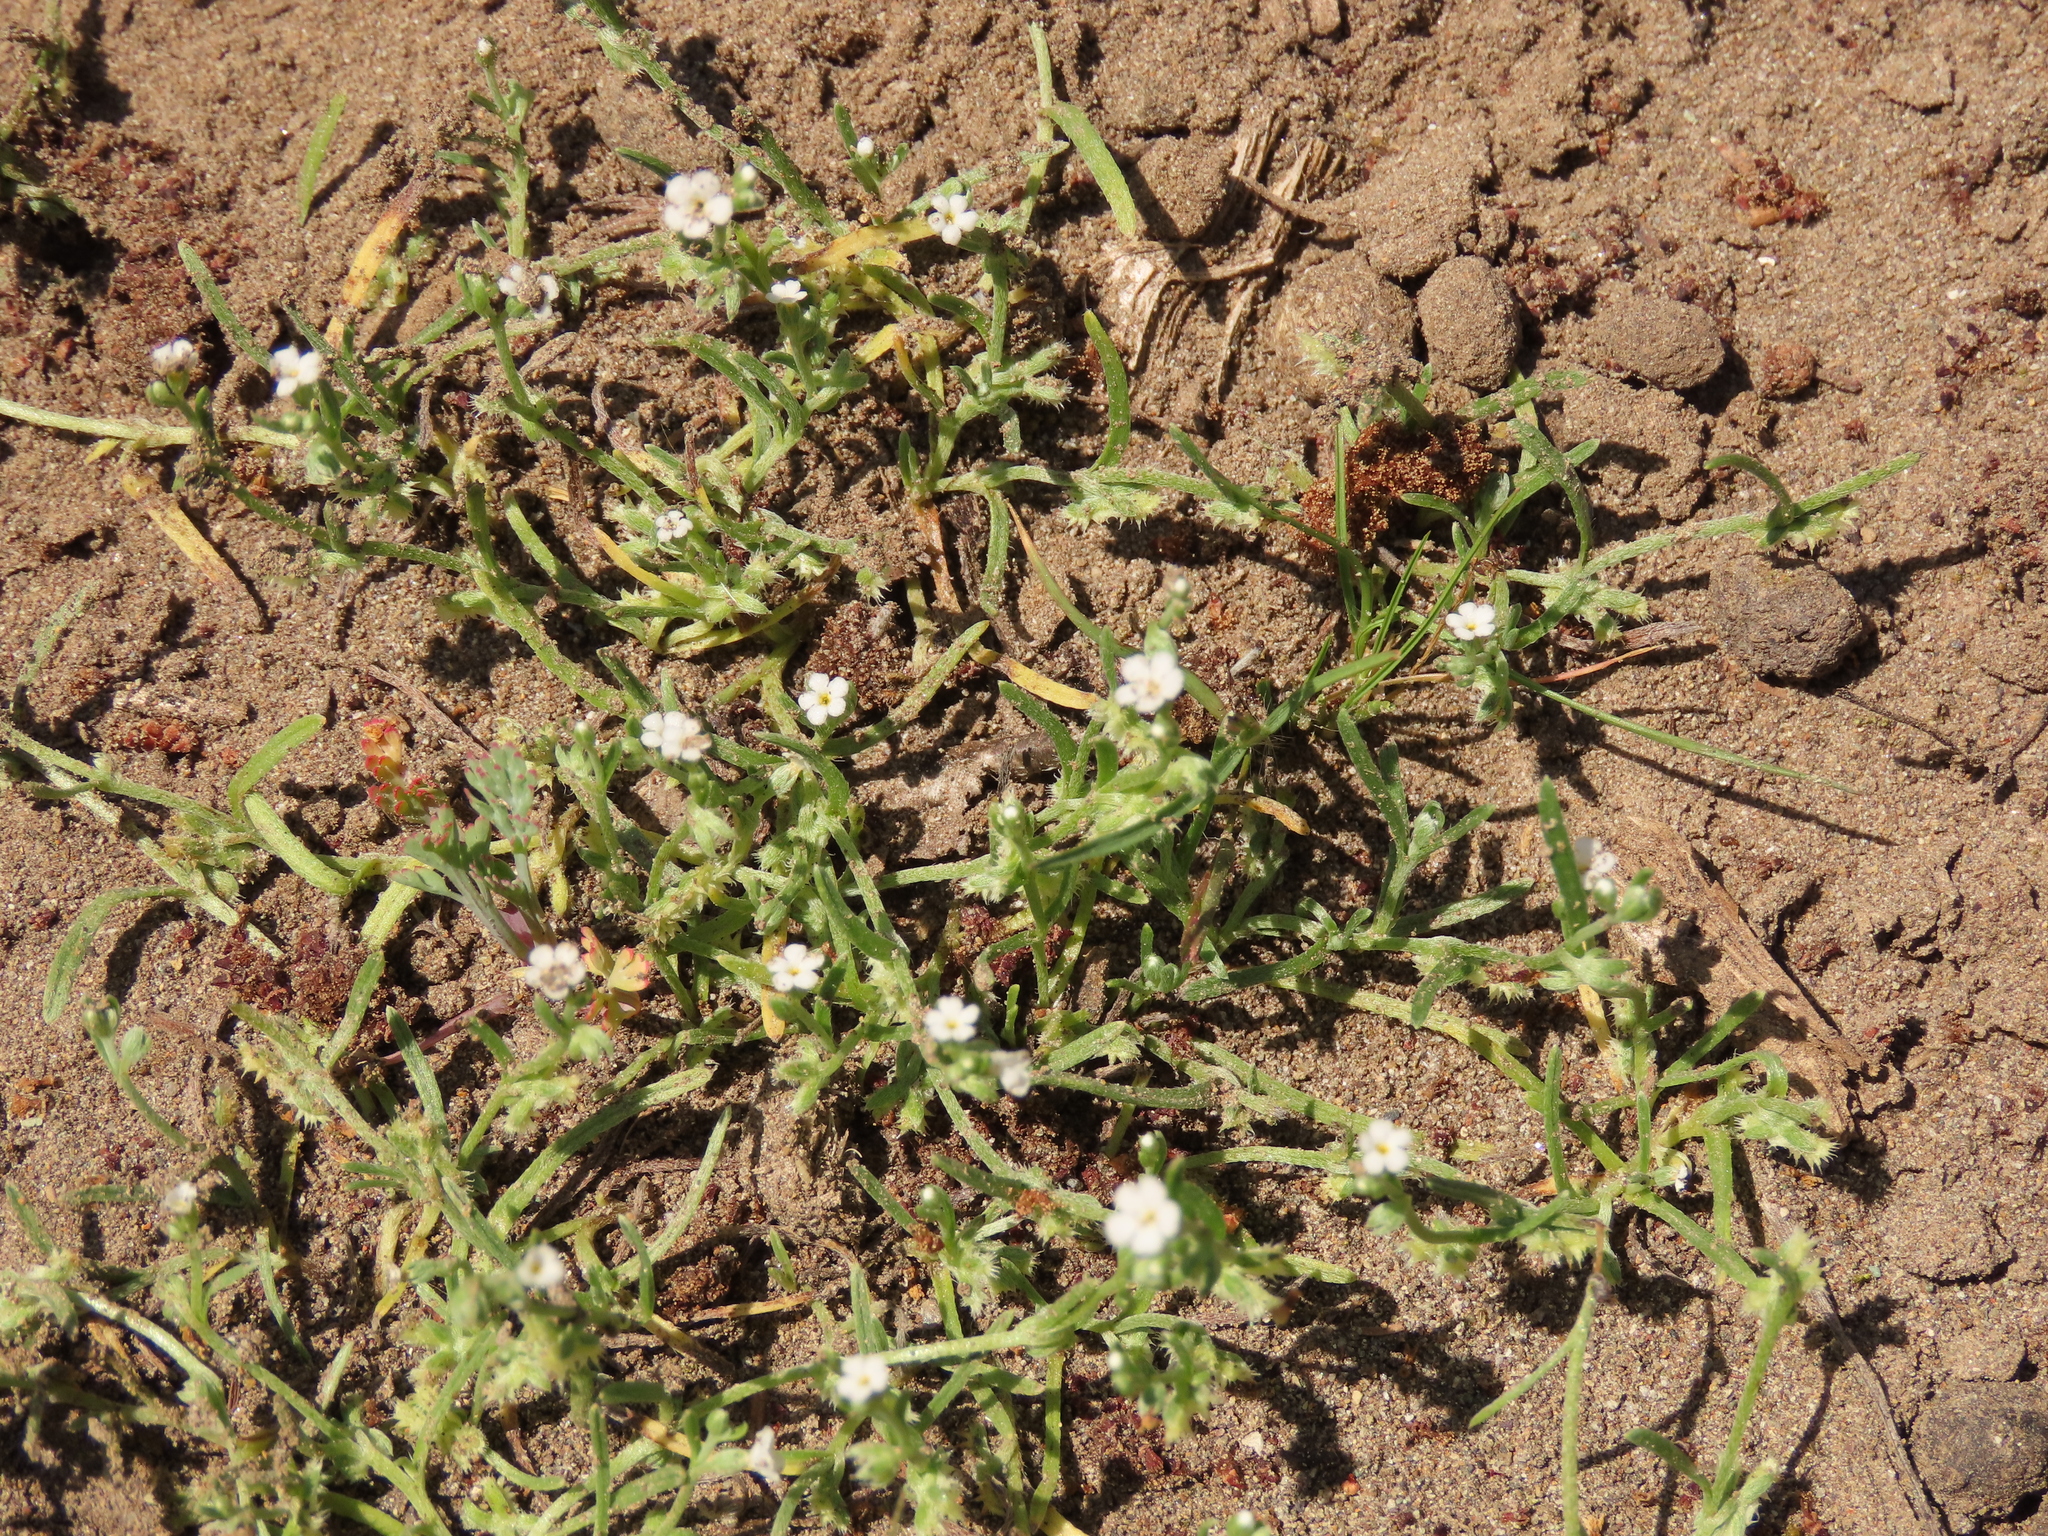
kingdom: Plantae
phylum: Tracheophyta
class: Magnoliopsida
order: Boraginales
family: Boraginaceae
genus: Pectocarya
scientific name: Pectocarya linearis
